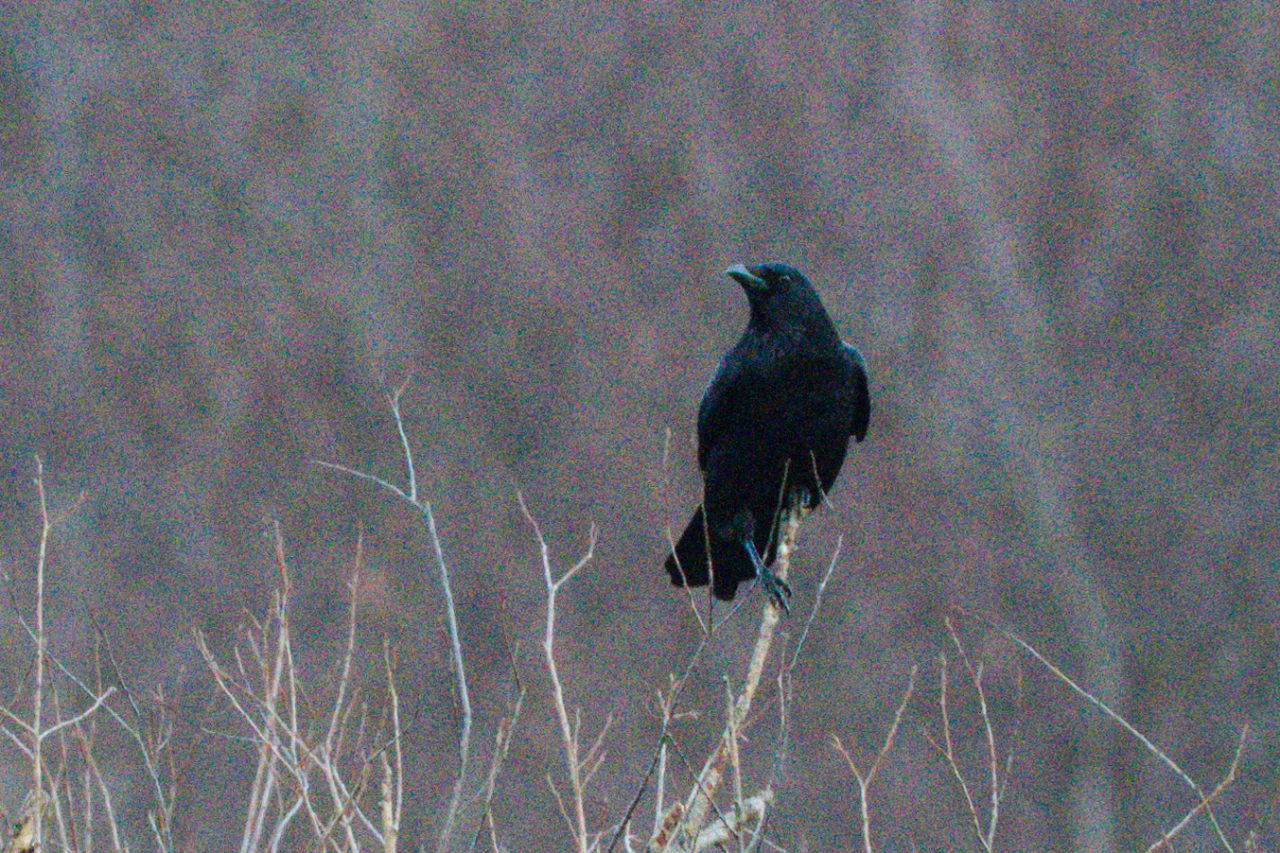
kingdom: Animalia
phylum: Chordata
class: Aves
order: Passeriformes
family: Corvidae
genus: Corvus
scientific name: Corvus corone
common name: Carrion crow
